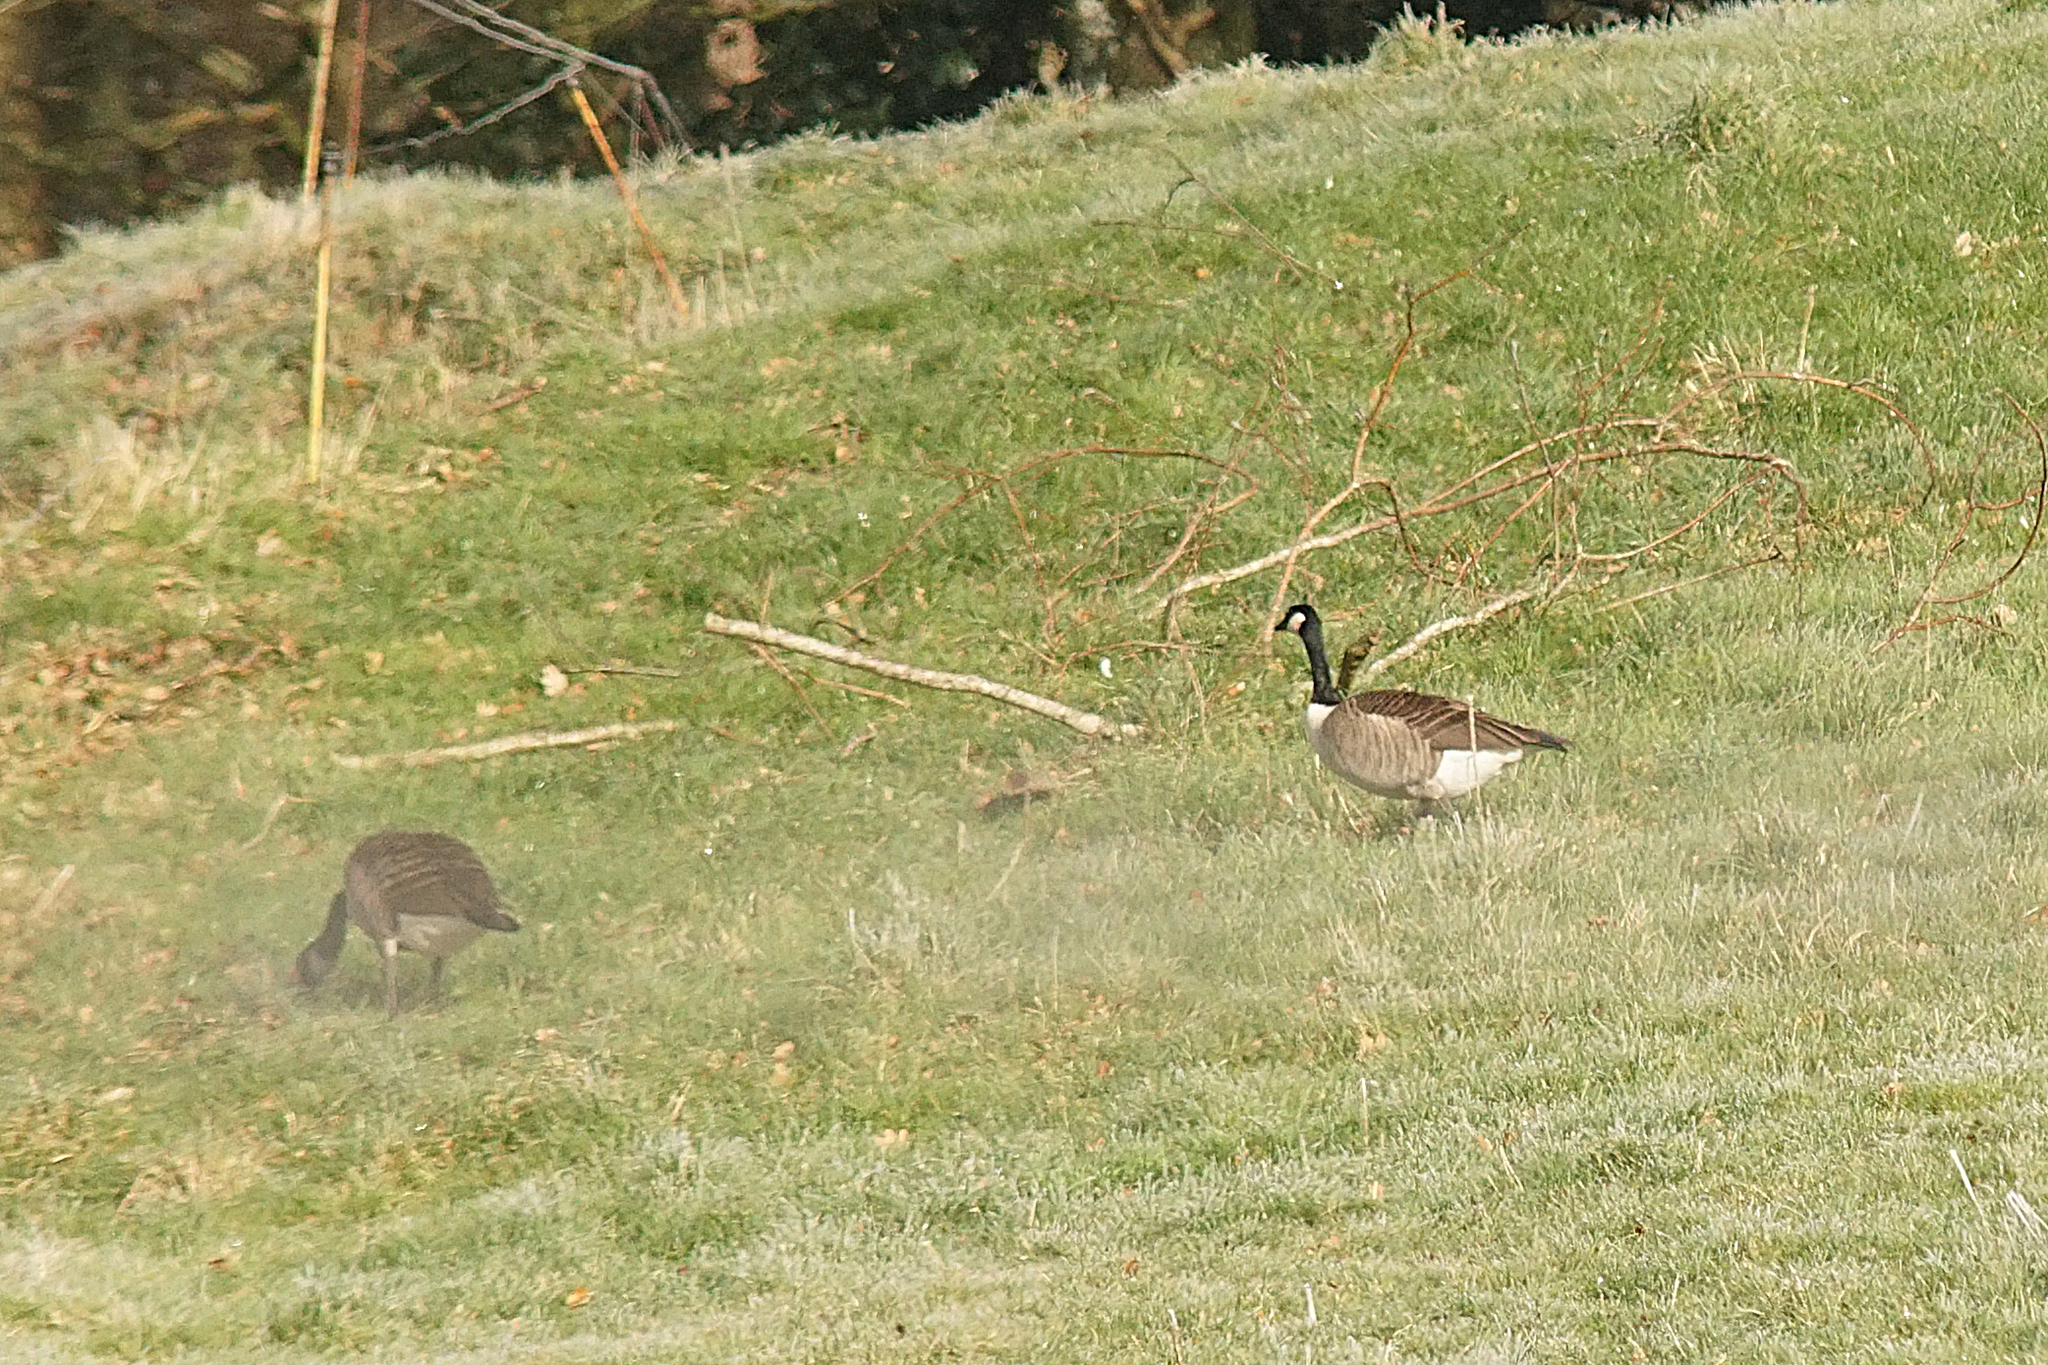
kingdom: Animalia
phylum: Chordata
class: Aves
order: Anseriformes
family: Anatidae
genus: Branta
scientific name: Branta canadensis
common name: Canada goose
